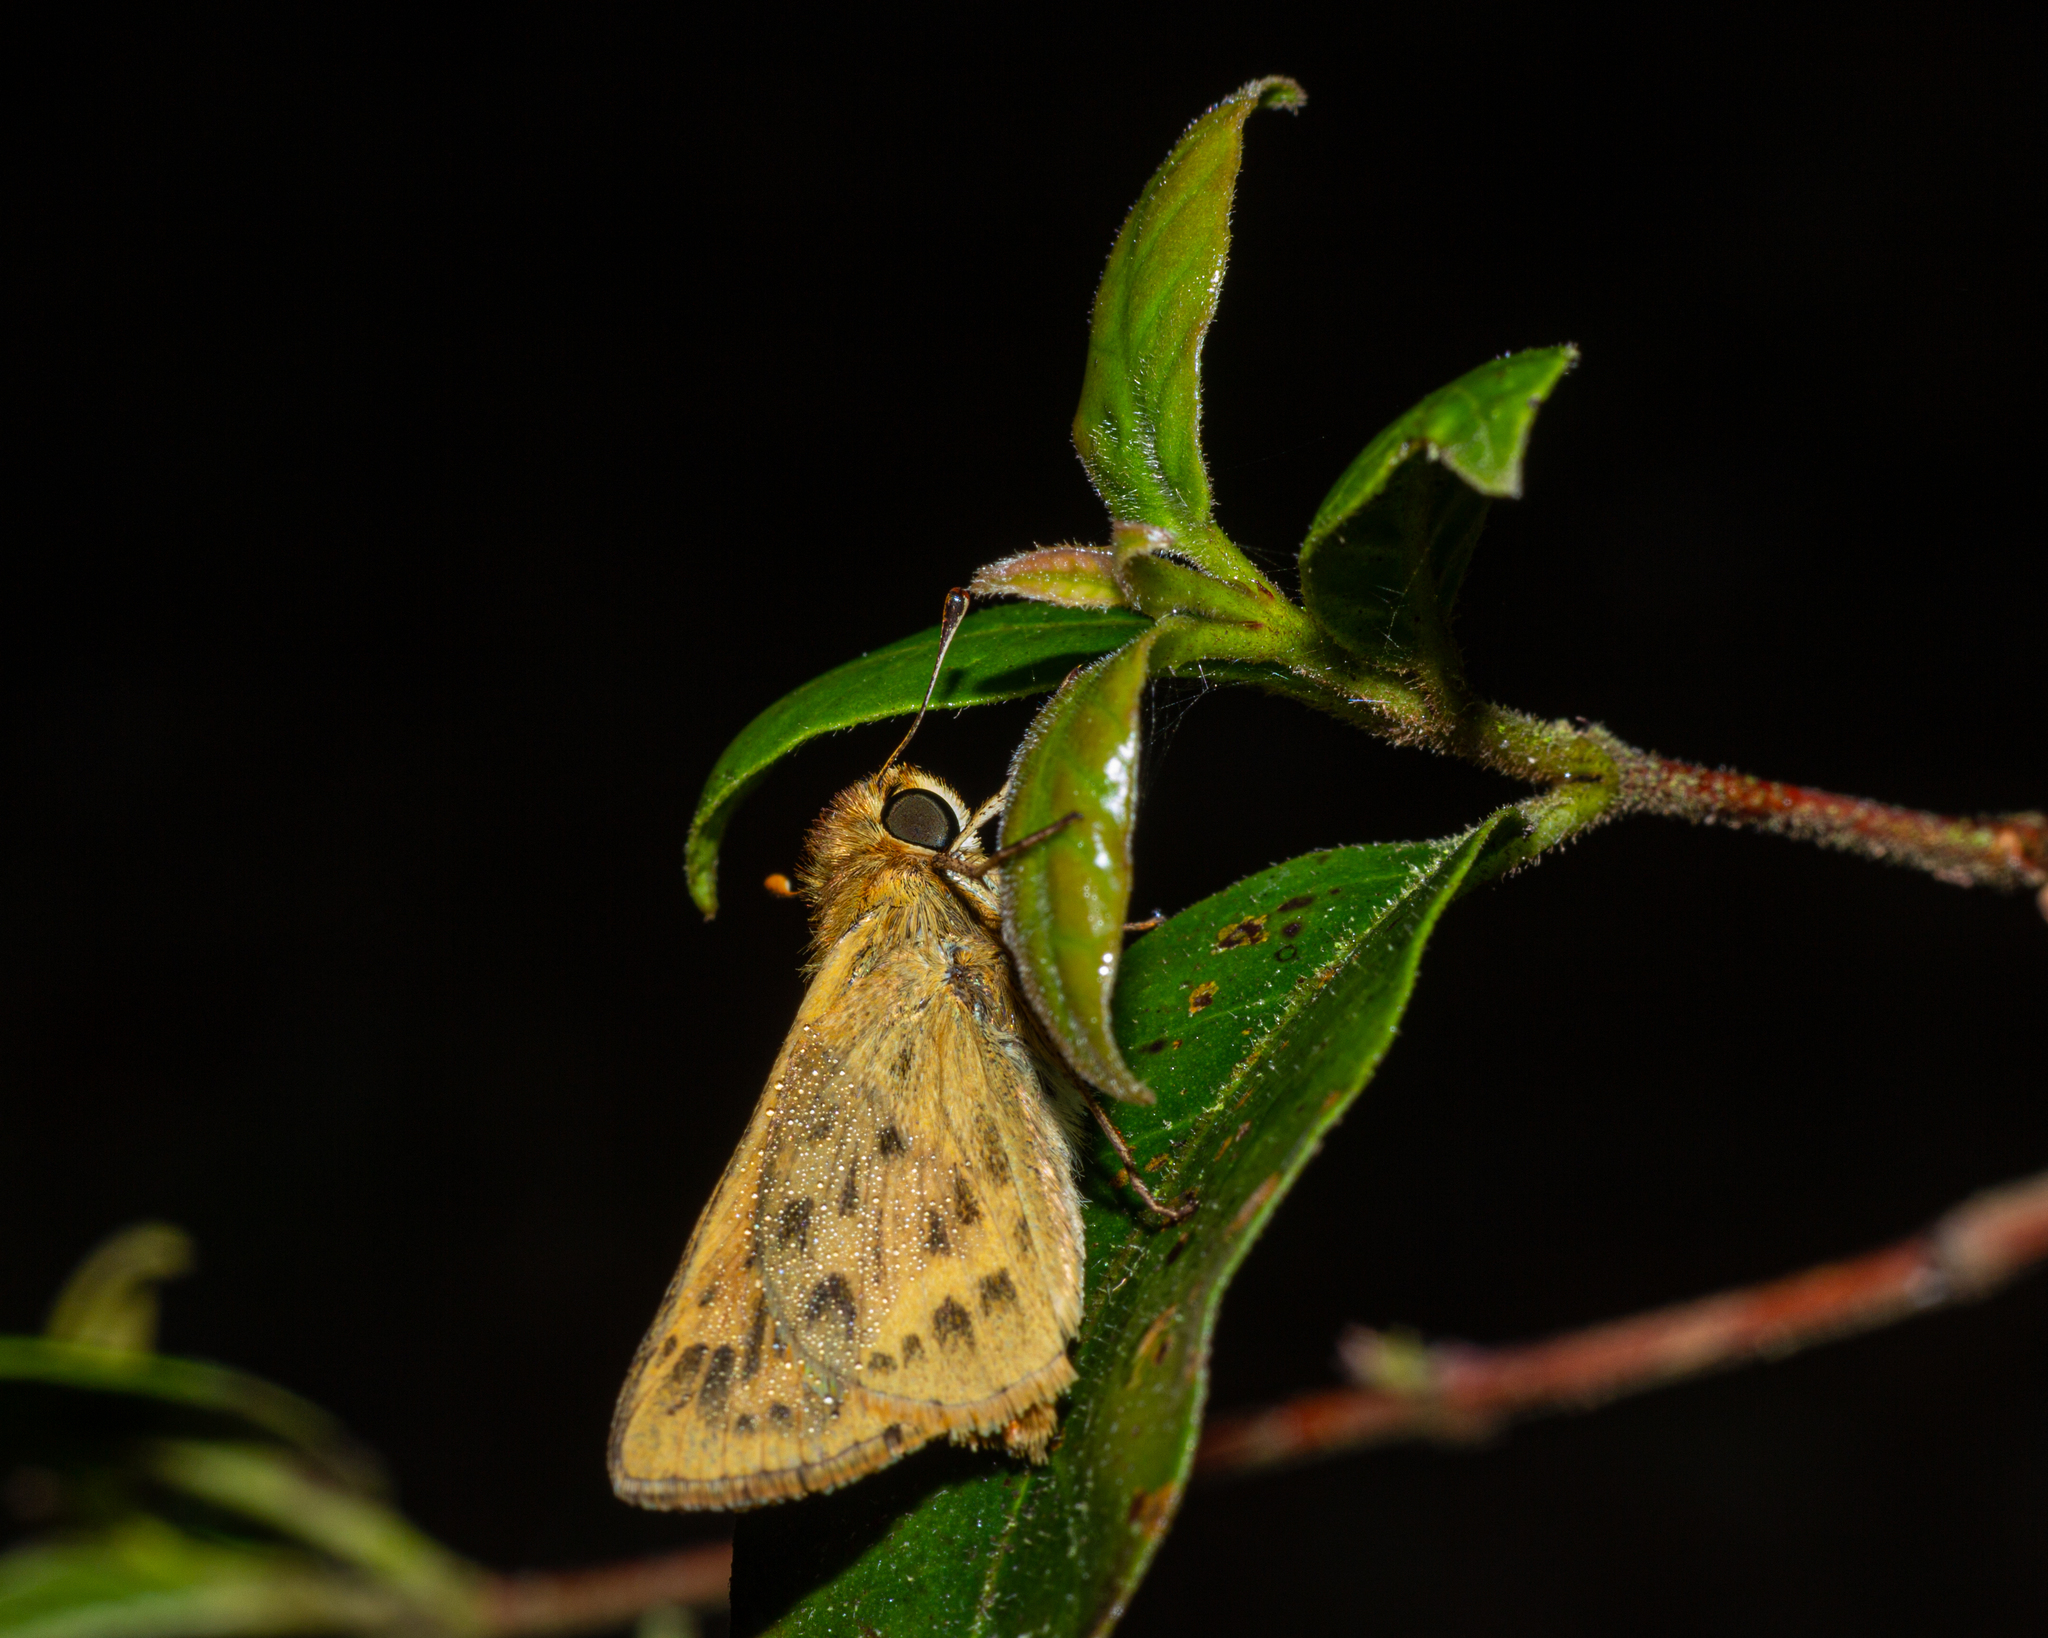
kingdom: Animalia
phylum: Arthropoda
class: Insecta
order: Lepidoptera
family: Hesperiidae
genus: Hylephila
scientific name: Hylephila phyleus
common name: Fiery skipper
